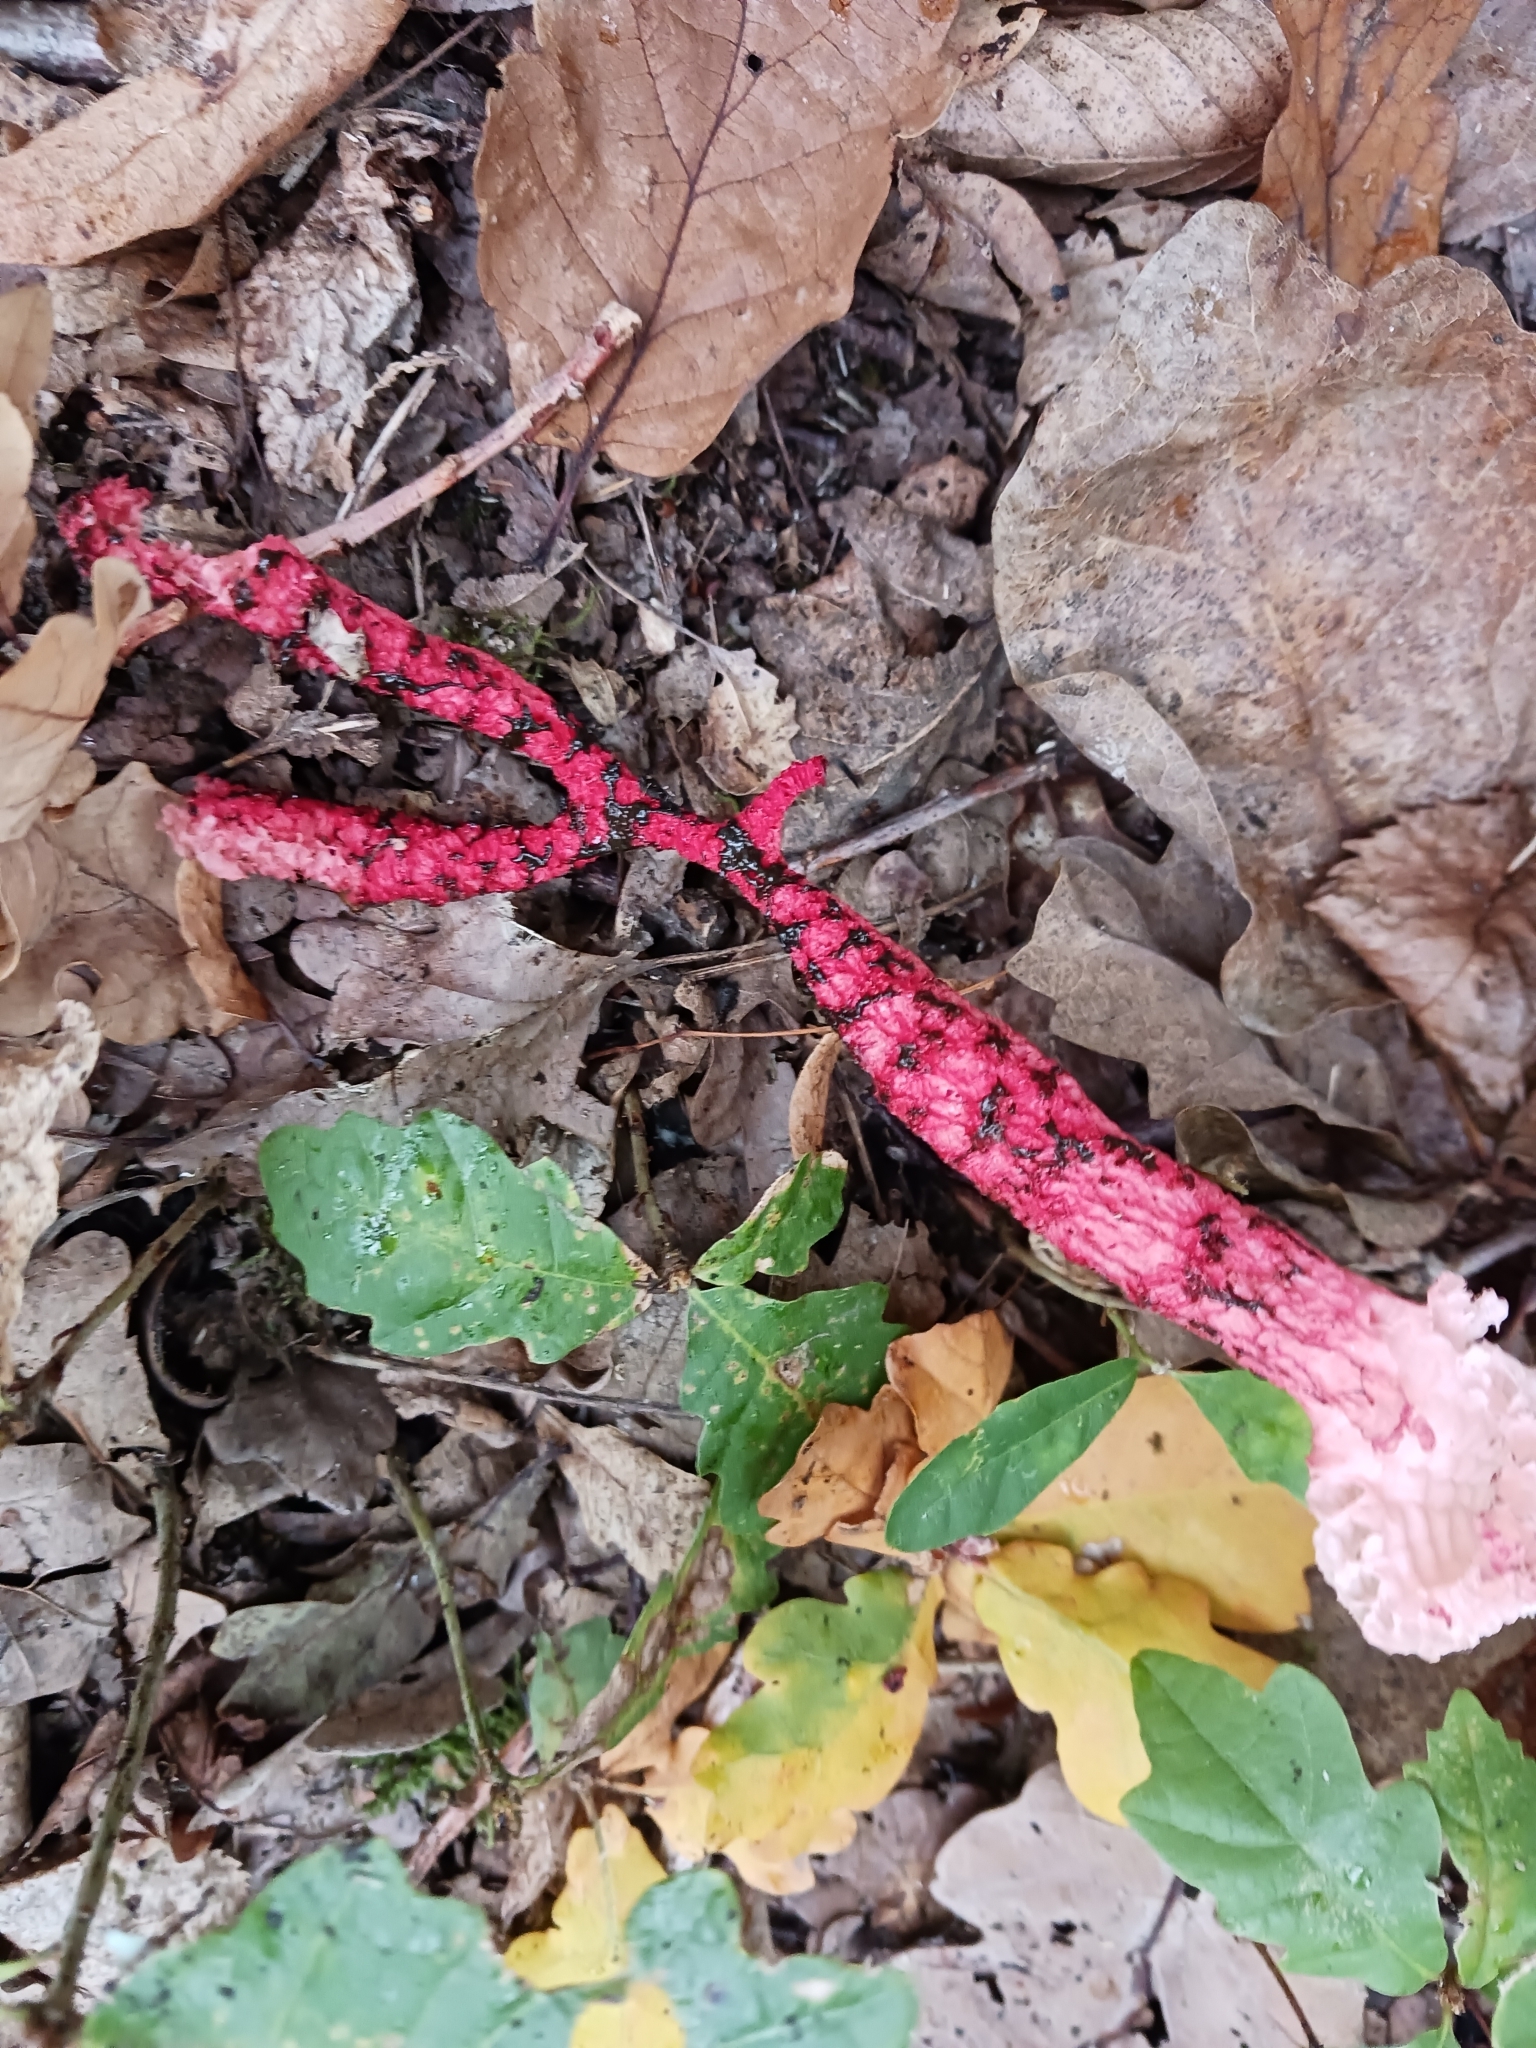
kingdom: Fungi
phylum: Basidiomycota
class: Agaricomycetes
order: Phallales
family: Phallaceae
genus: Clathrus
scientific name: Clathrus archeri
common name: Devil's fingers
